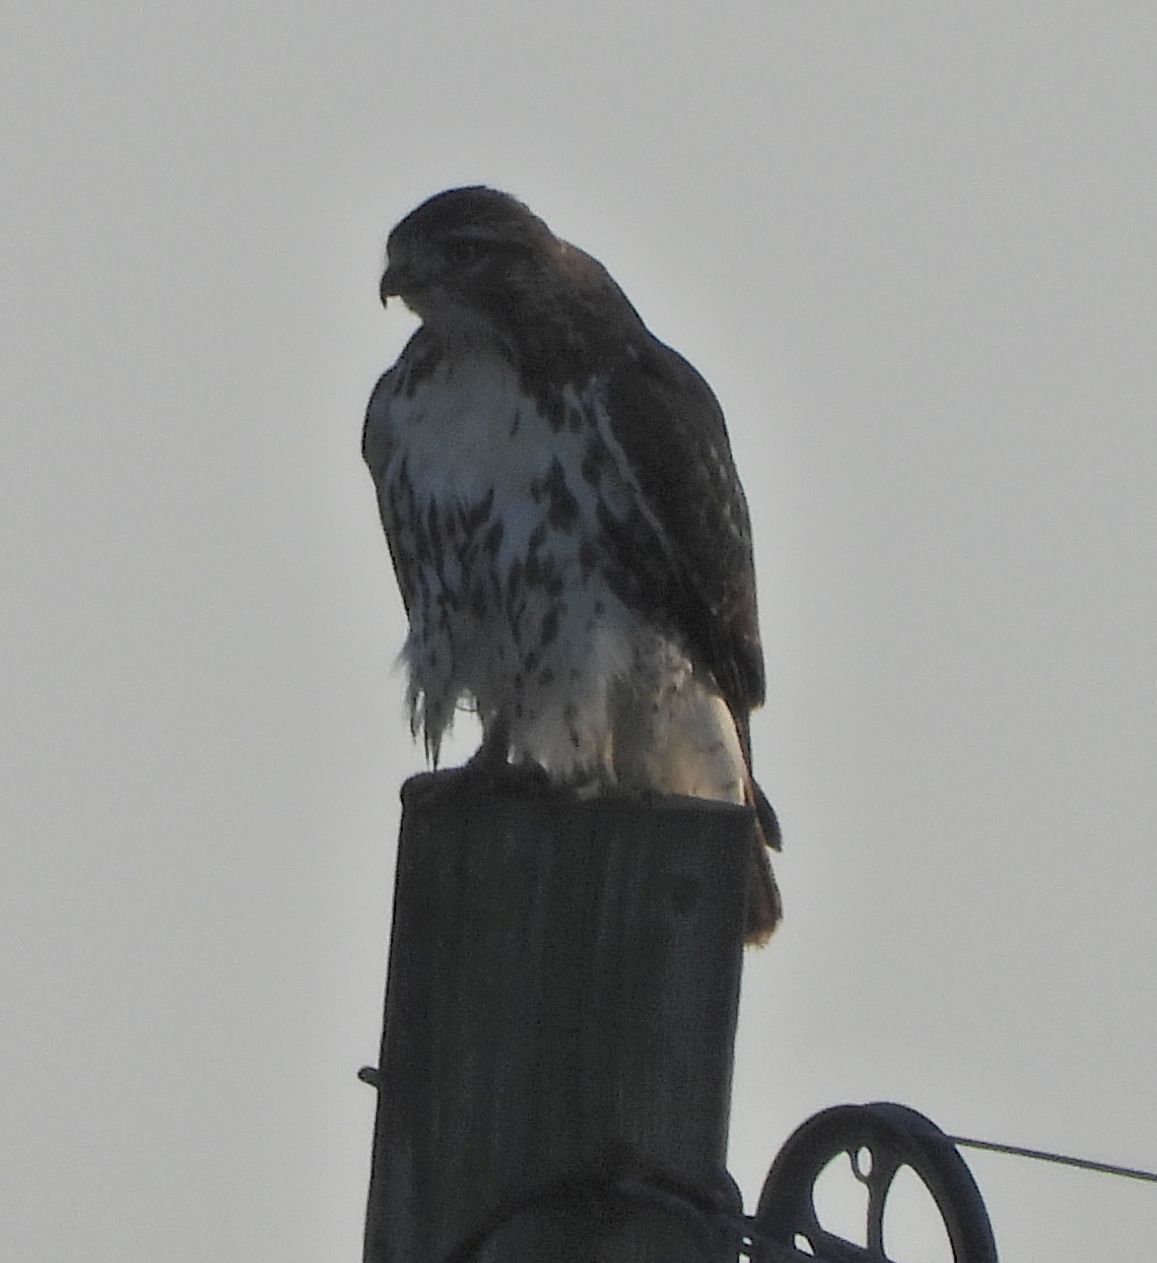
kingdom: Animalia
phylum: Chordata
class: Aves
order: Accipitriformes
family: Accipitridae
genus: Buteo
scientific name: Buteo jamaicensis
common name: Red-tailed hawk
